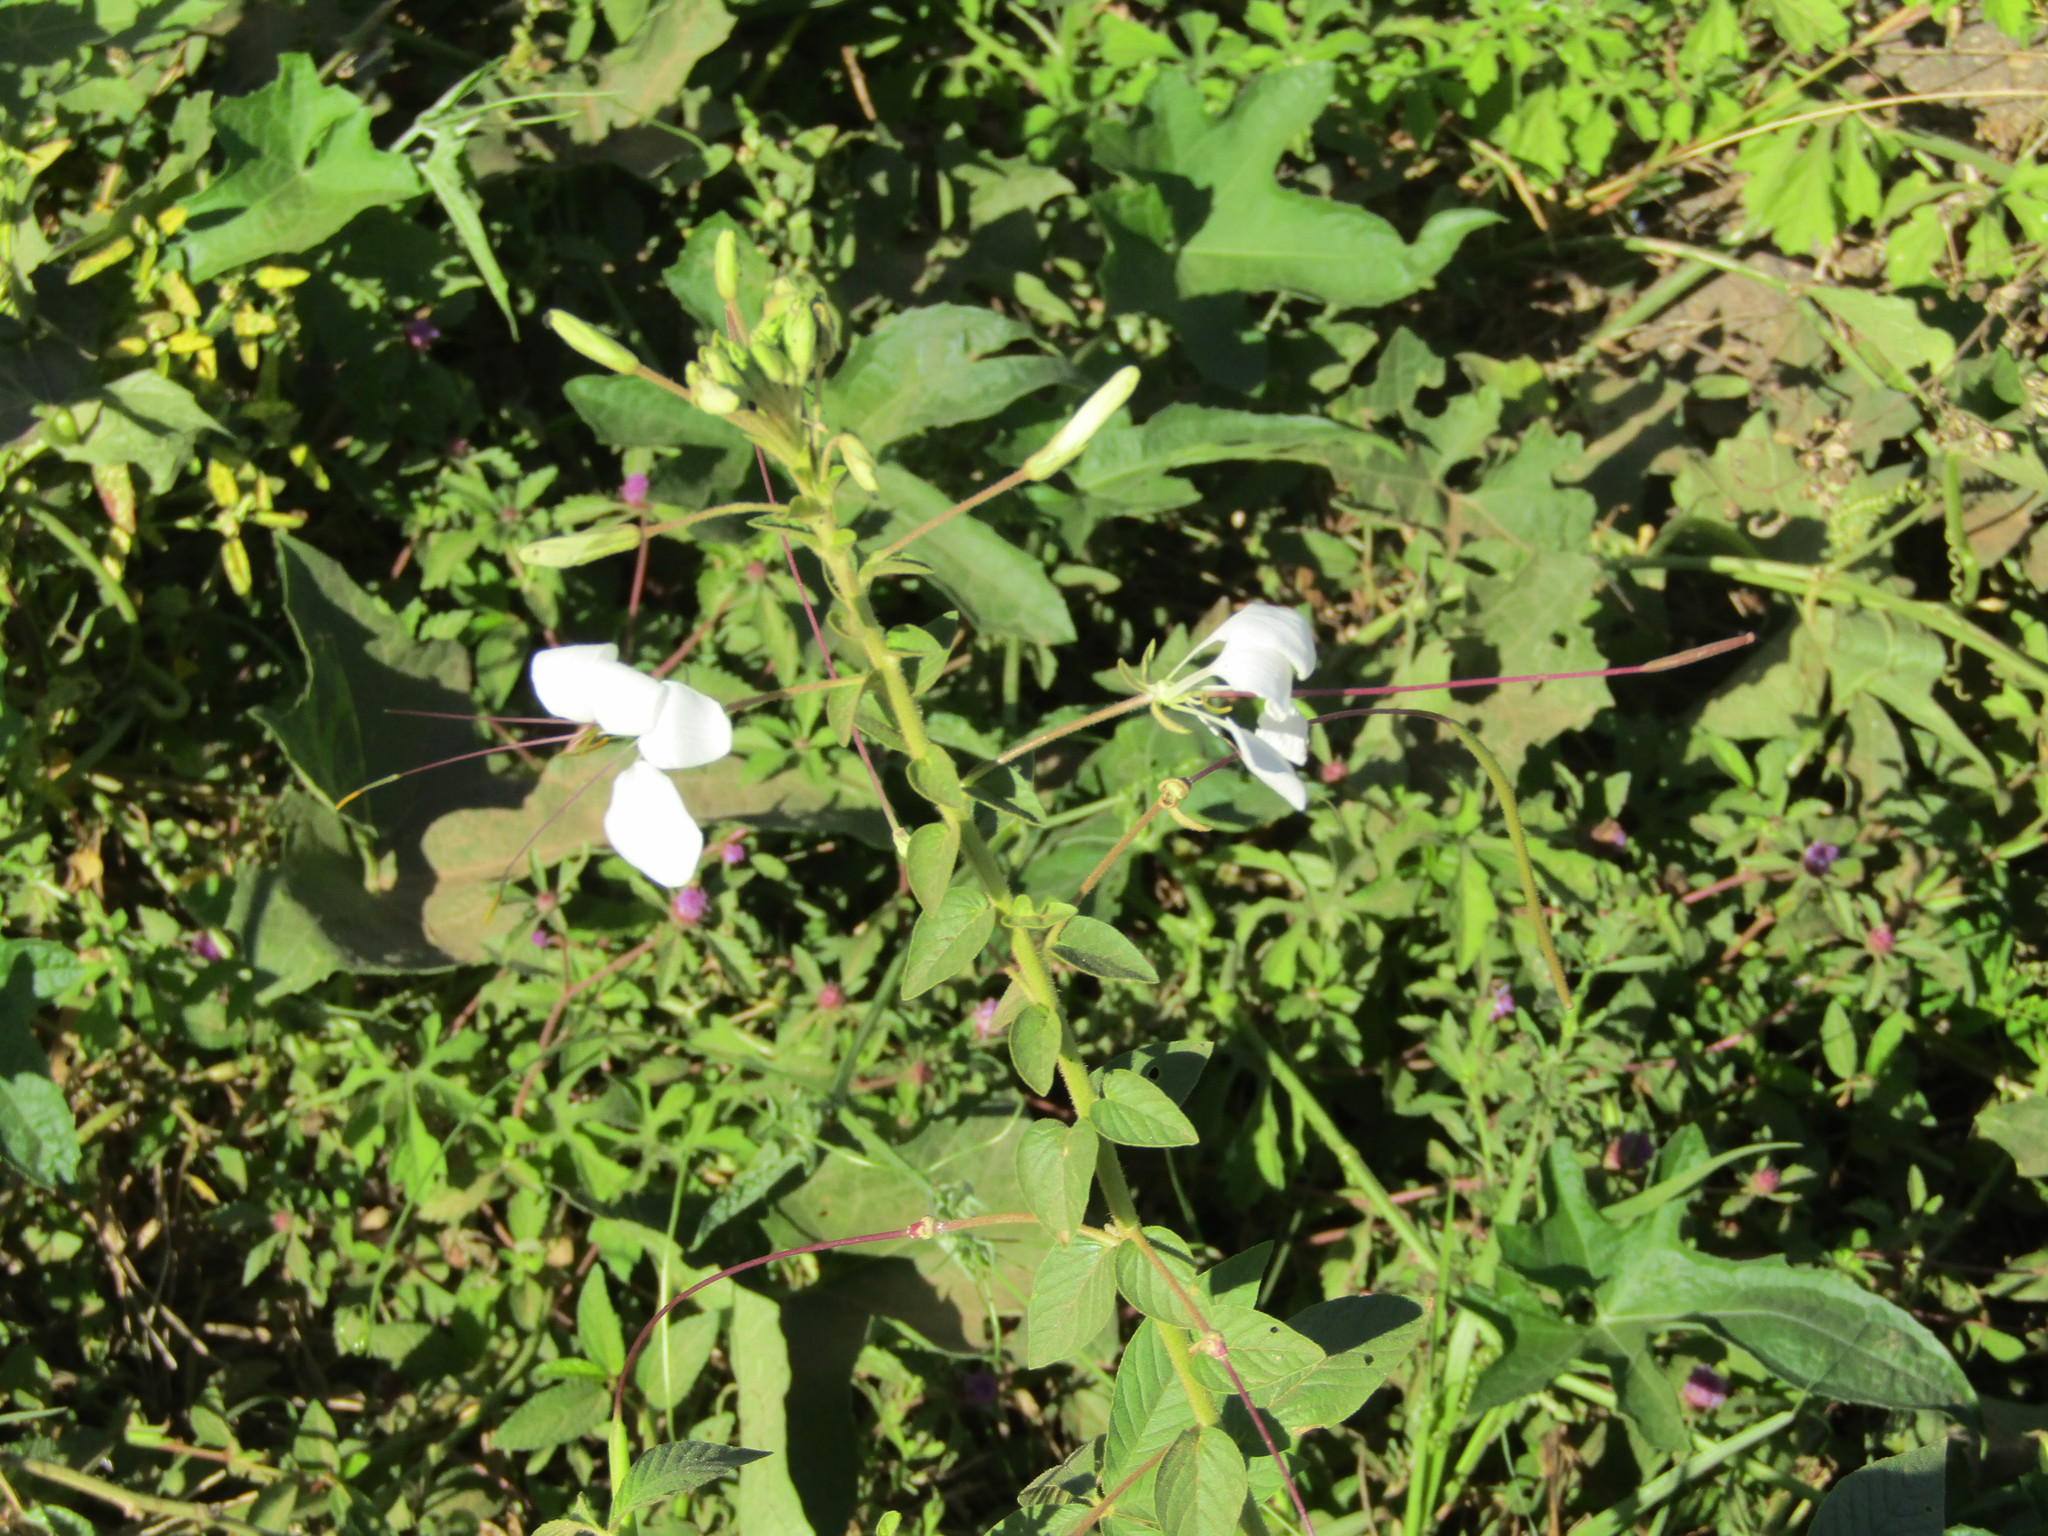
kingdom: Plantae
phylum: Tracheophyta
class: Magnoliopsida
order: Brassicales
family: Cleomaceae
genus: Tarenaya
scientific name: Tarenaya longicarpa
